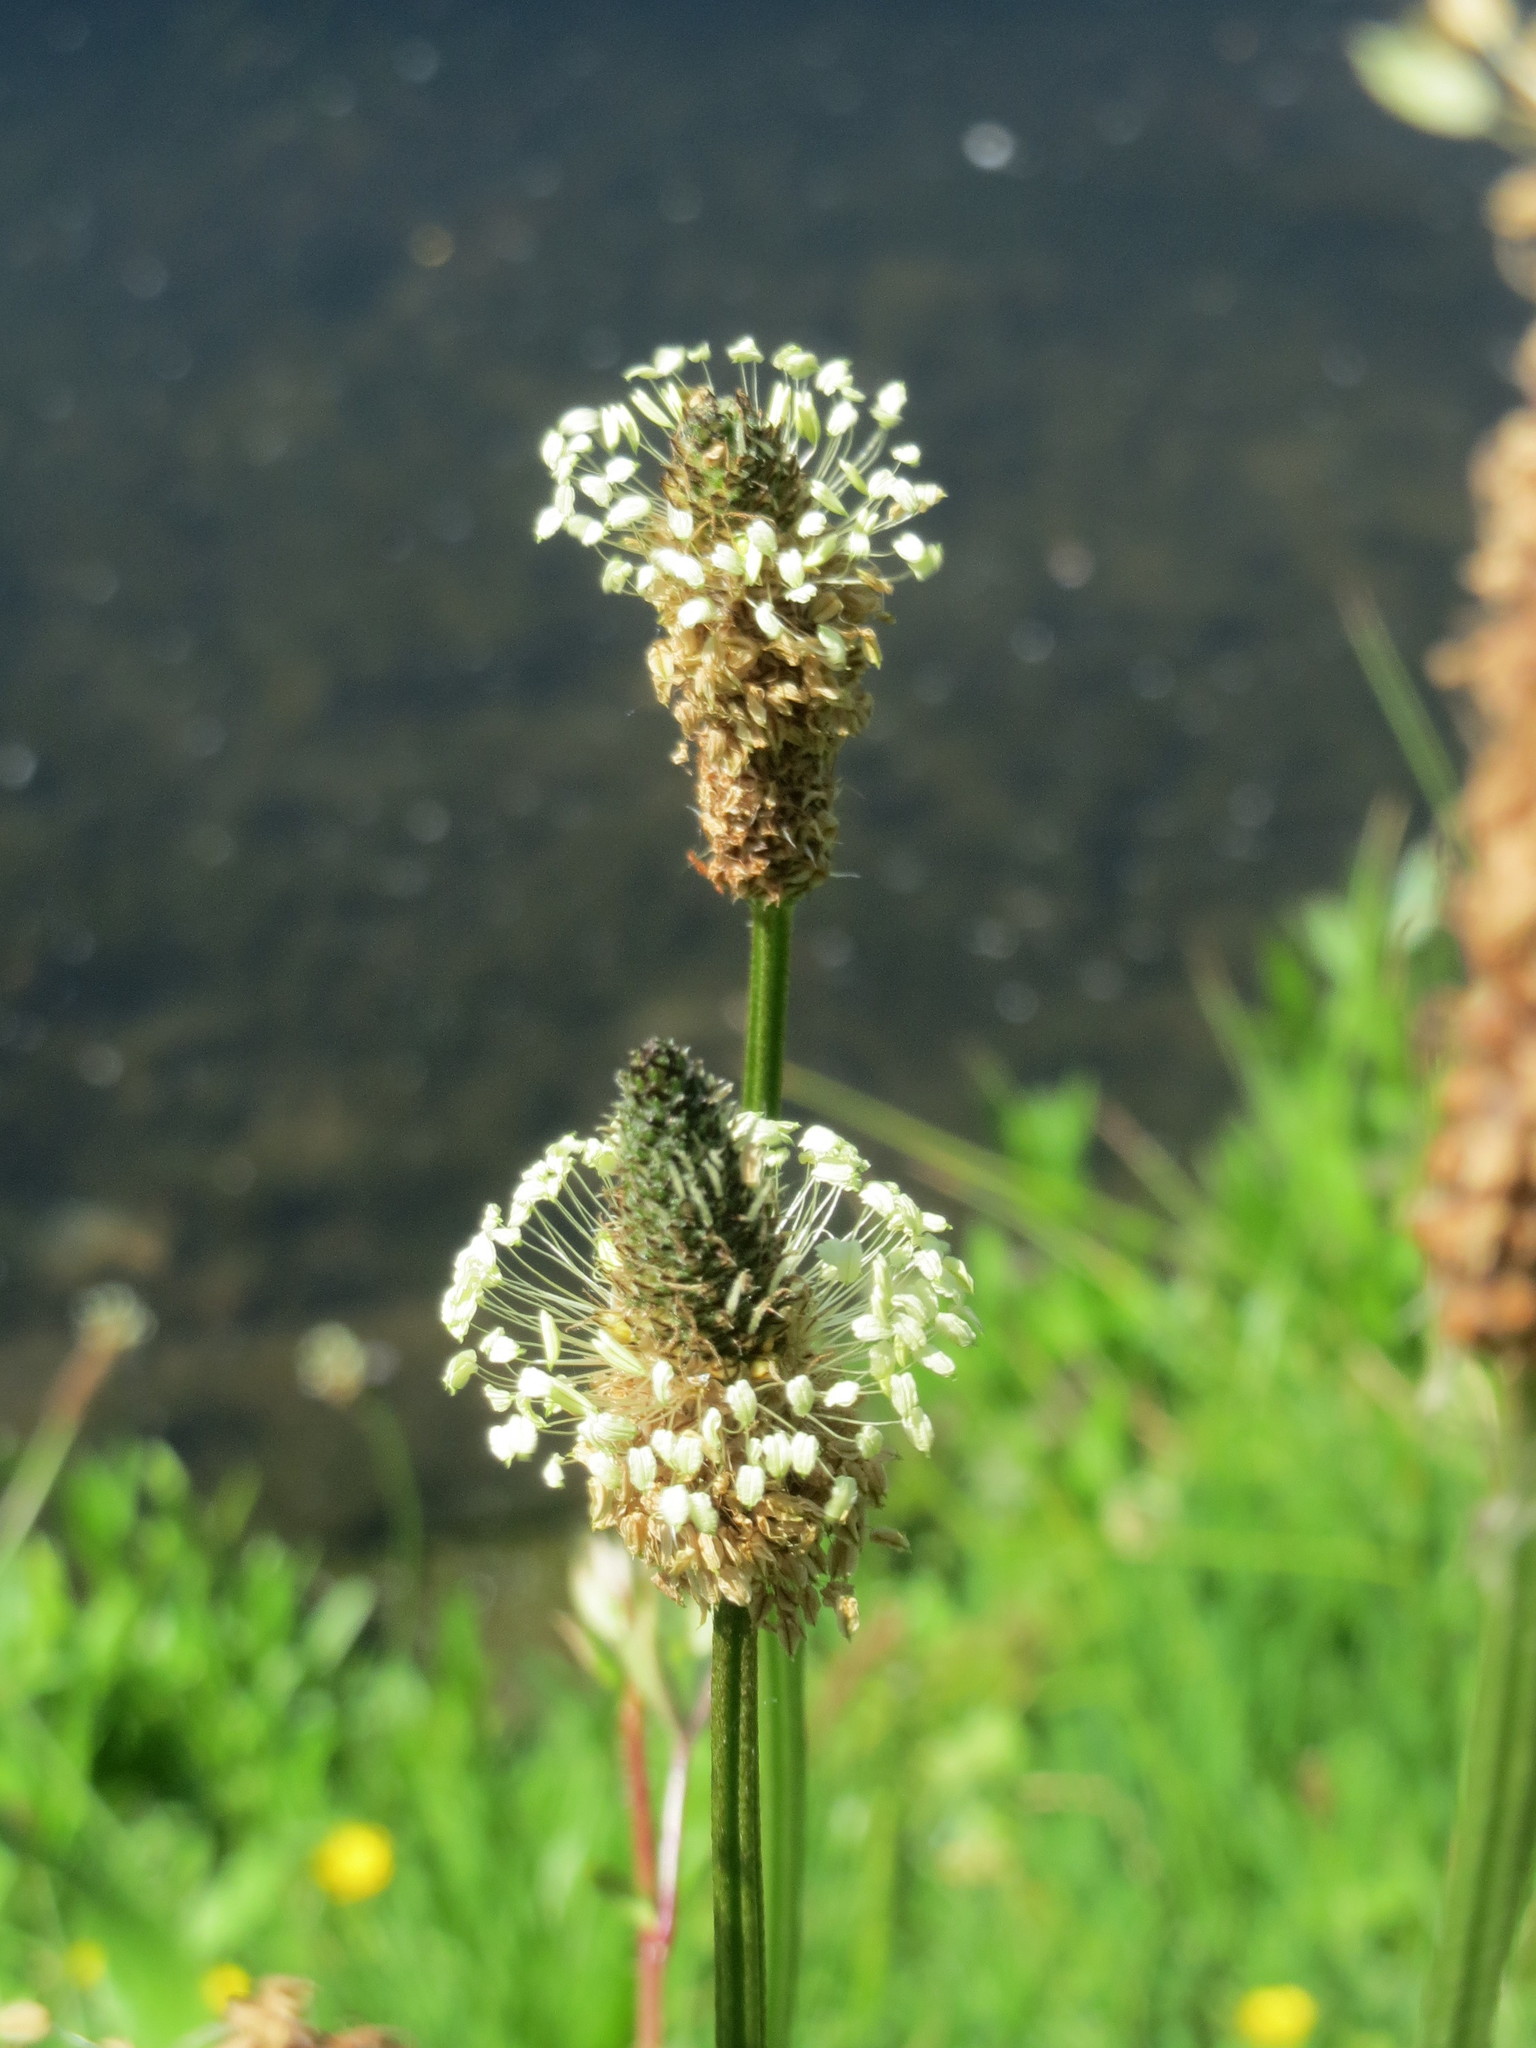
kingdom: Plantae
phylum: Tracheophyta
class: Magnoliopsida
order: Lamiales
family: Plantaginaceae
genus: Plantago
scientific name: Plantago lanceolata
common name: Ribwort plantain
